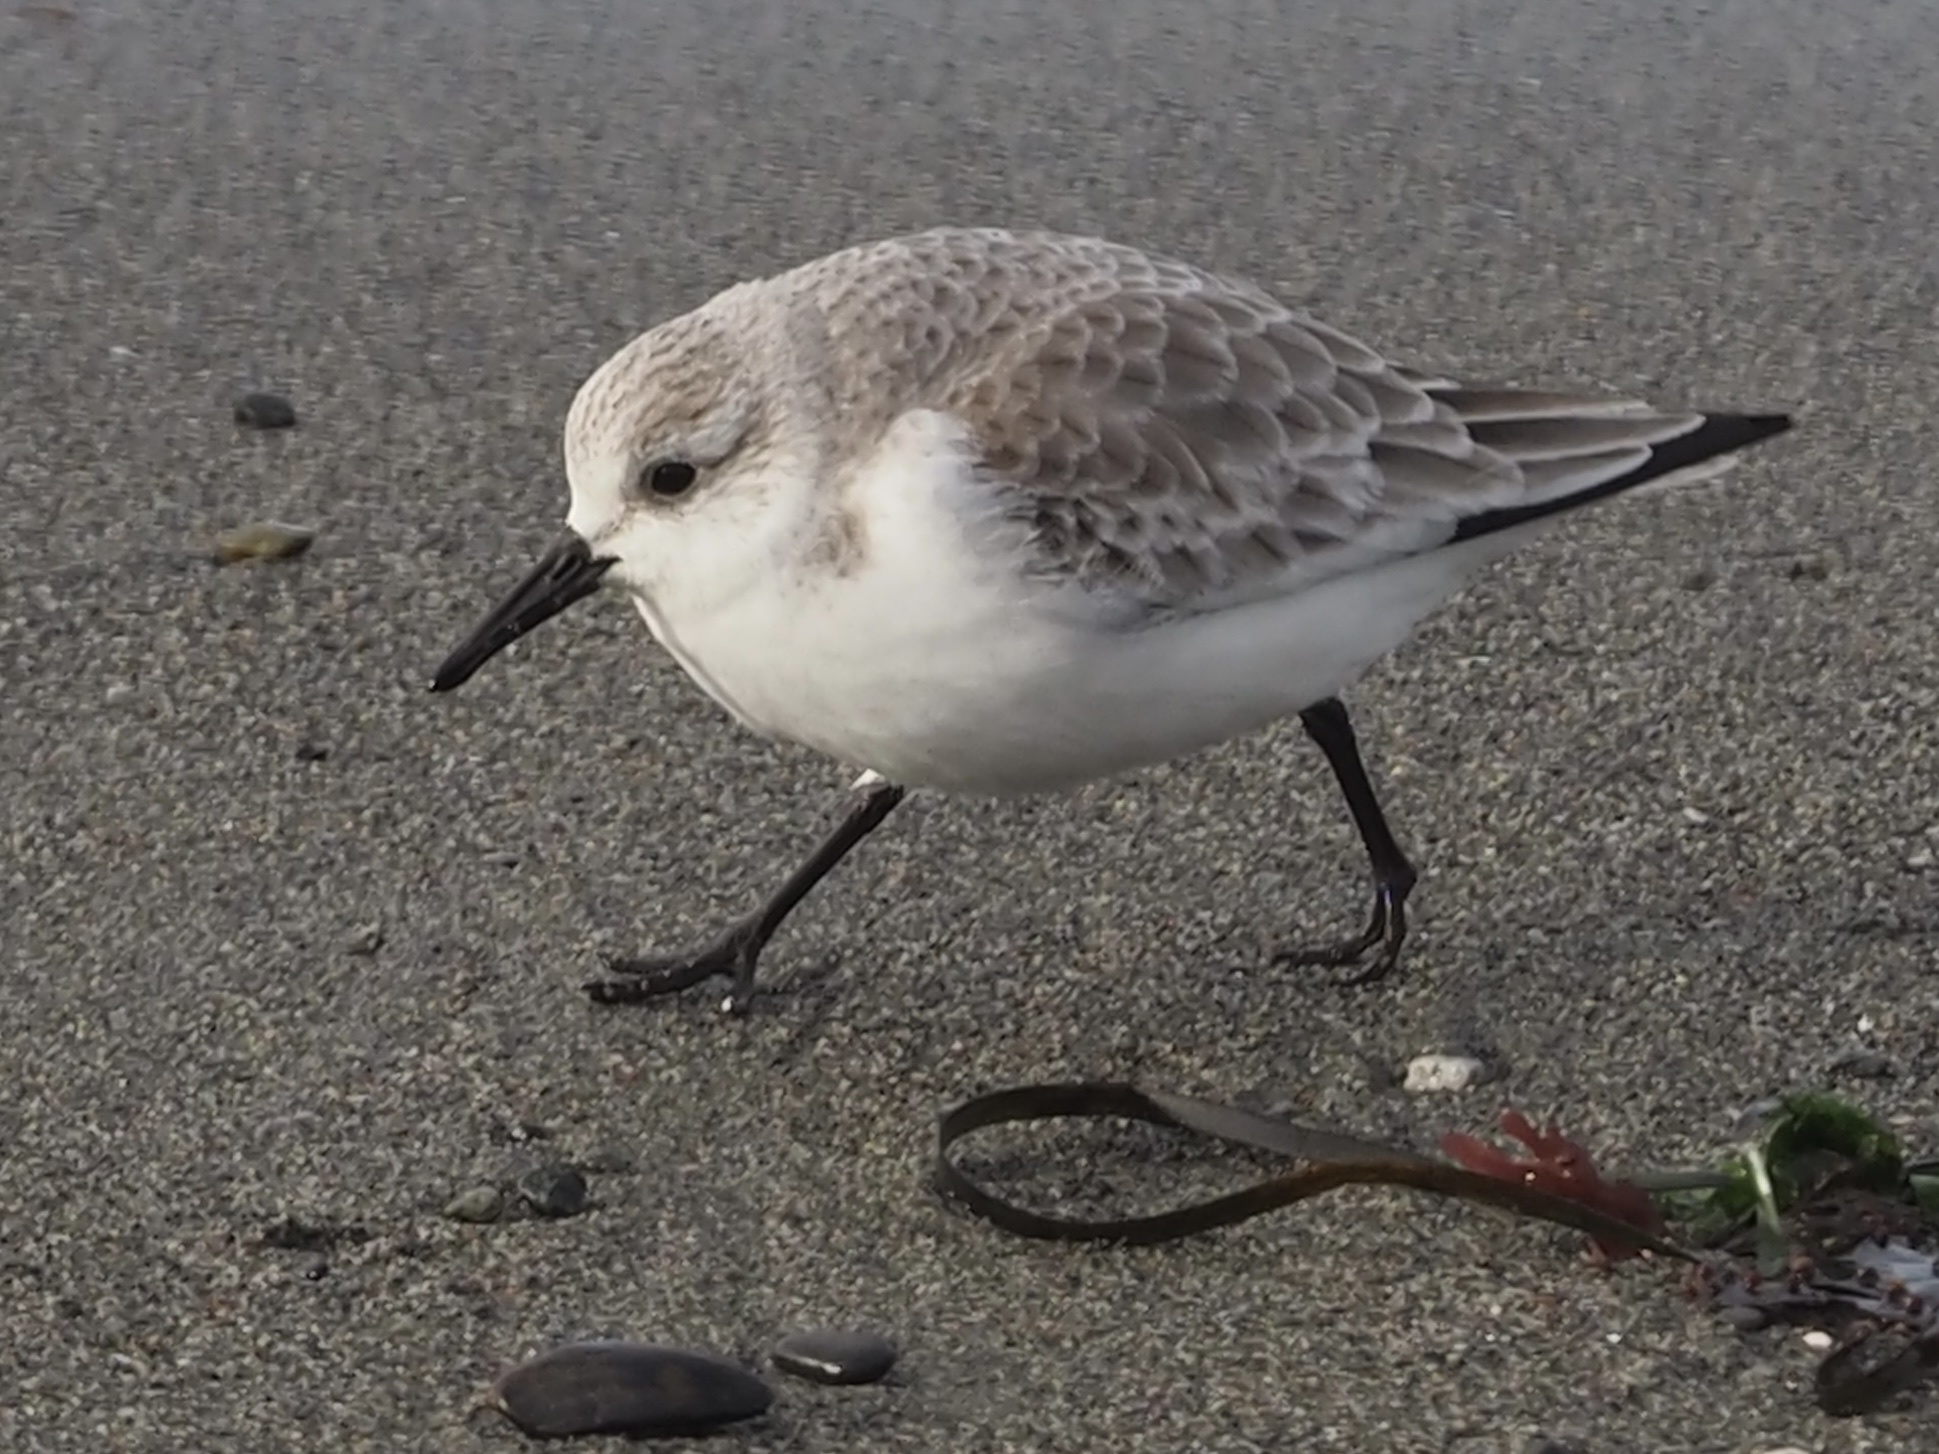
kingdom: Animalia
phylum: Chordata
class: Aves
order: Charadriiformes
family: Scolopacidae
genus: Calidris
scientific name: Calidris alba
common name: Sanderling
